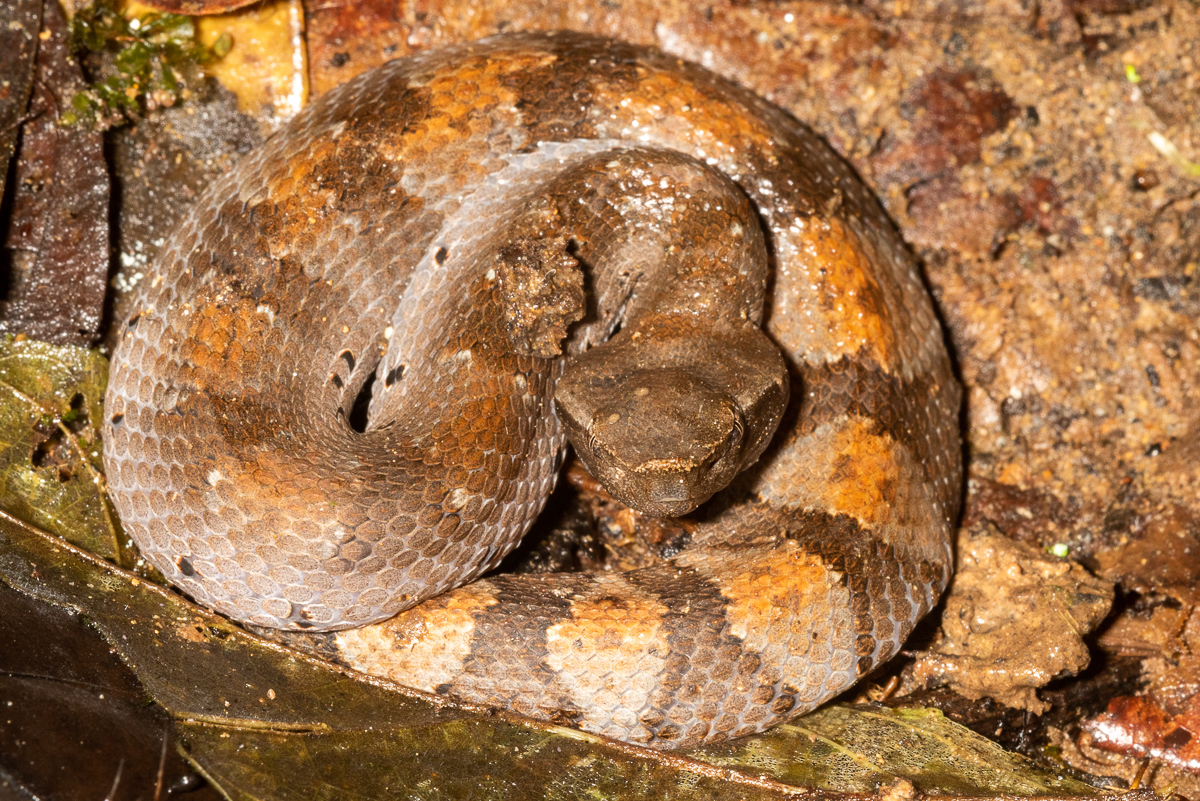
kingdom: Animalia
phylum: Chordata
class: Squamata
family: Viperidae
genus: Bothrocophias
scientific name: Bothrocophias hyoprora
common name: Amazonian toad-headed pitviper
